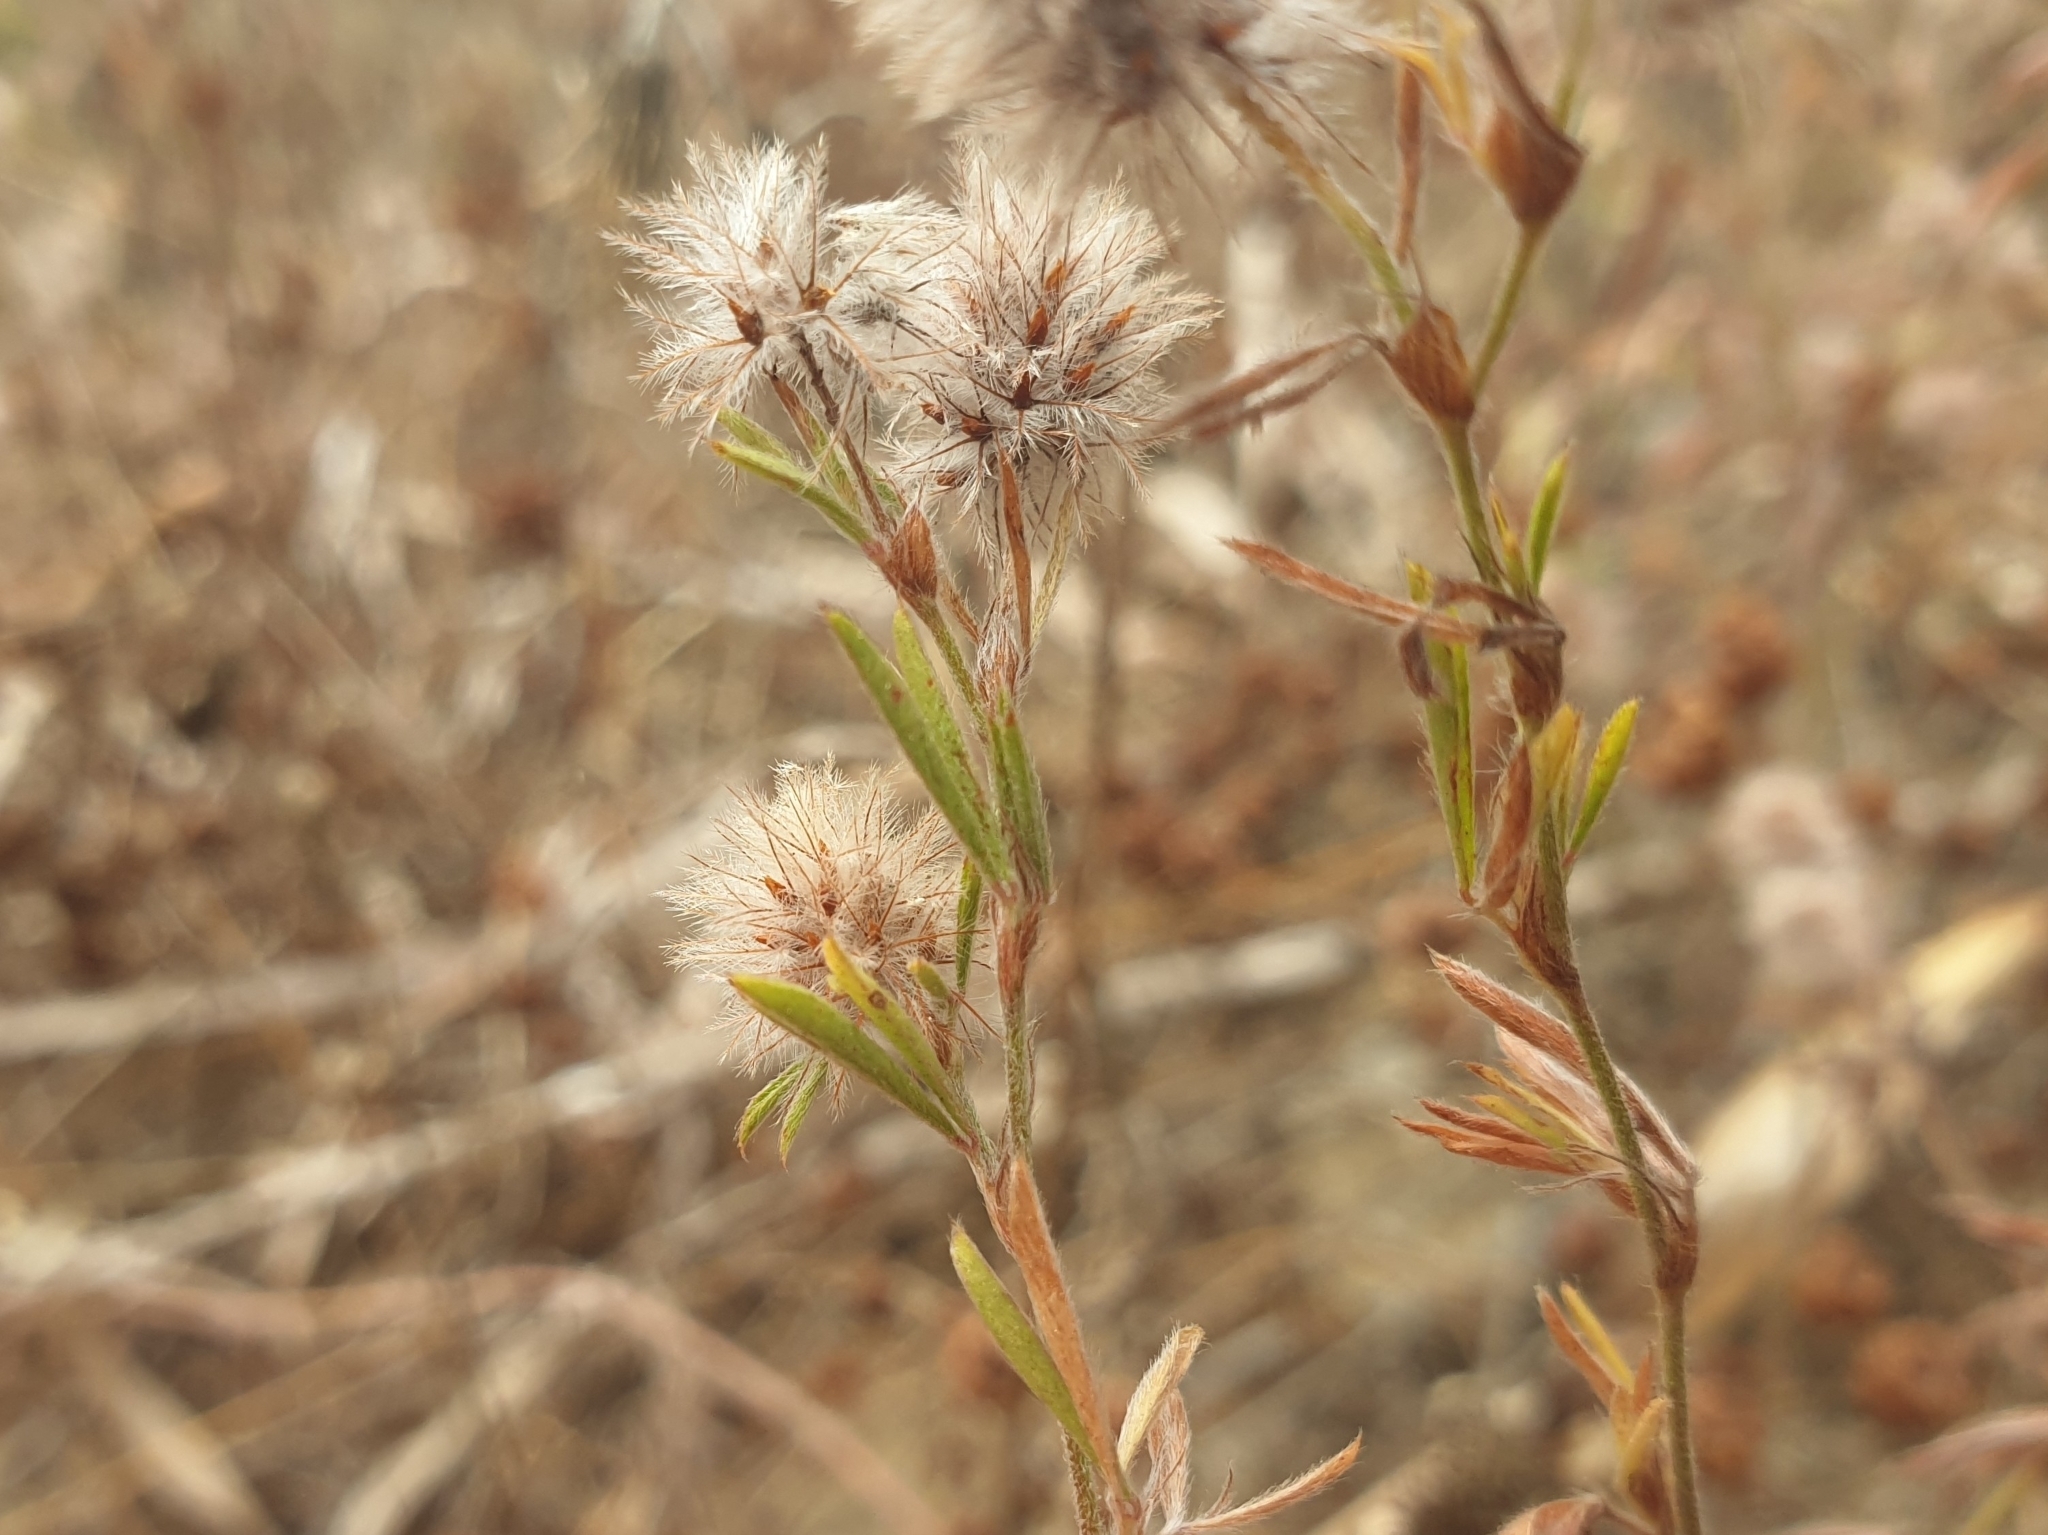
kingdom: Plantae
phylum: Tracheophyta
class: Magnoliopsida
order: Fabales
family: Fabaceae
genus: Trifolium
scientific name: Trifolium arvense
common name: Hare's-foot clover
